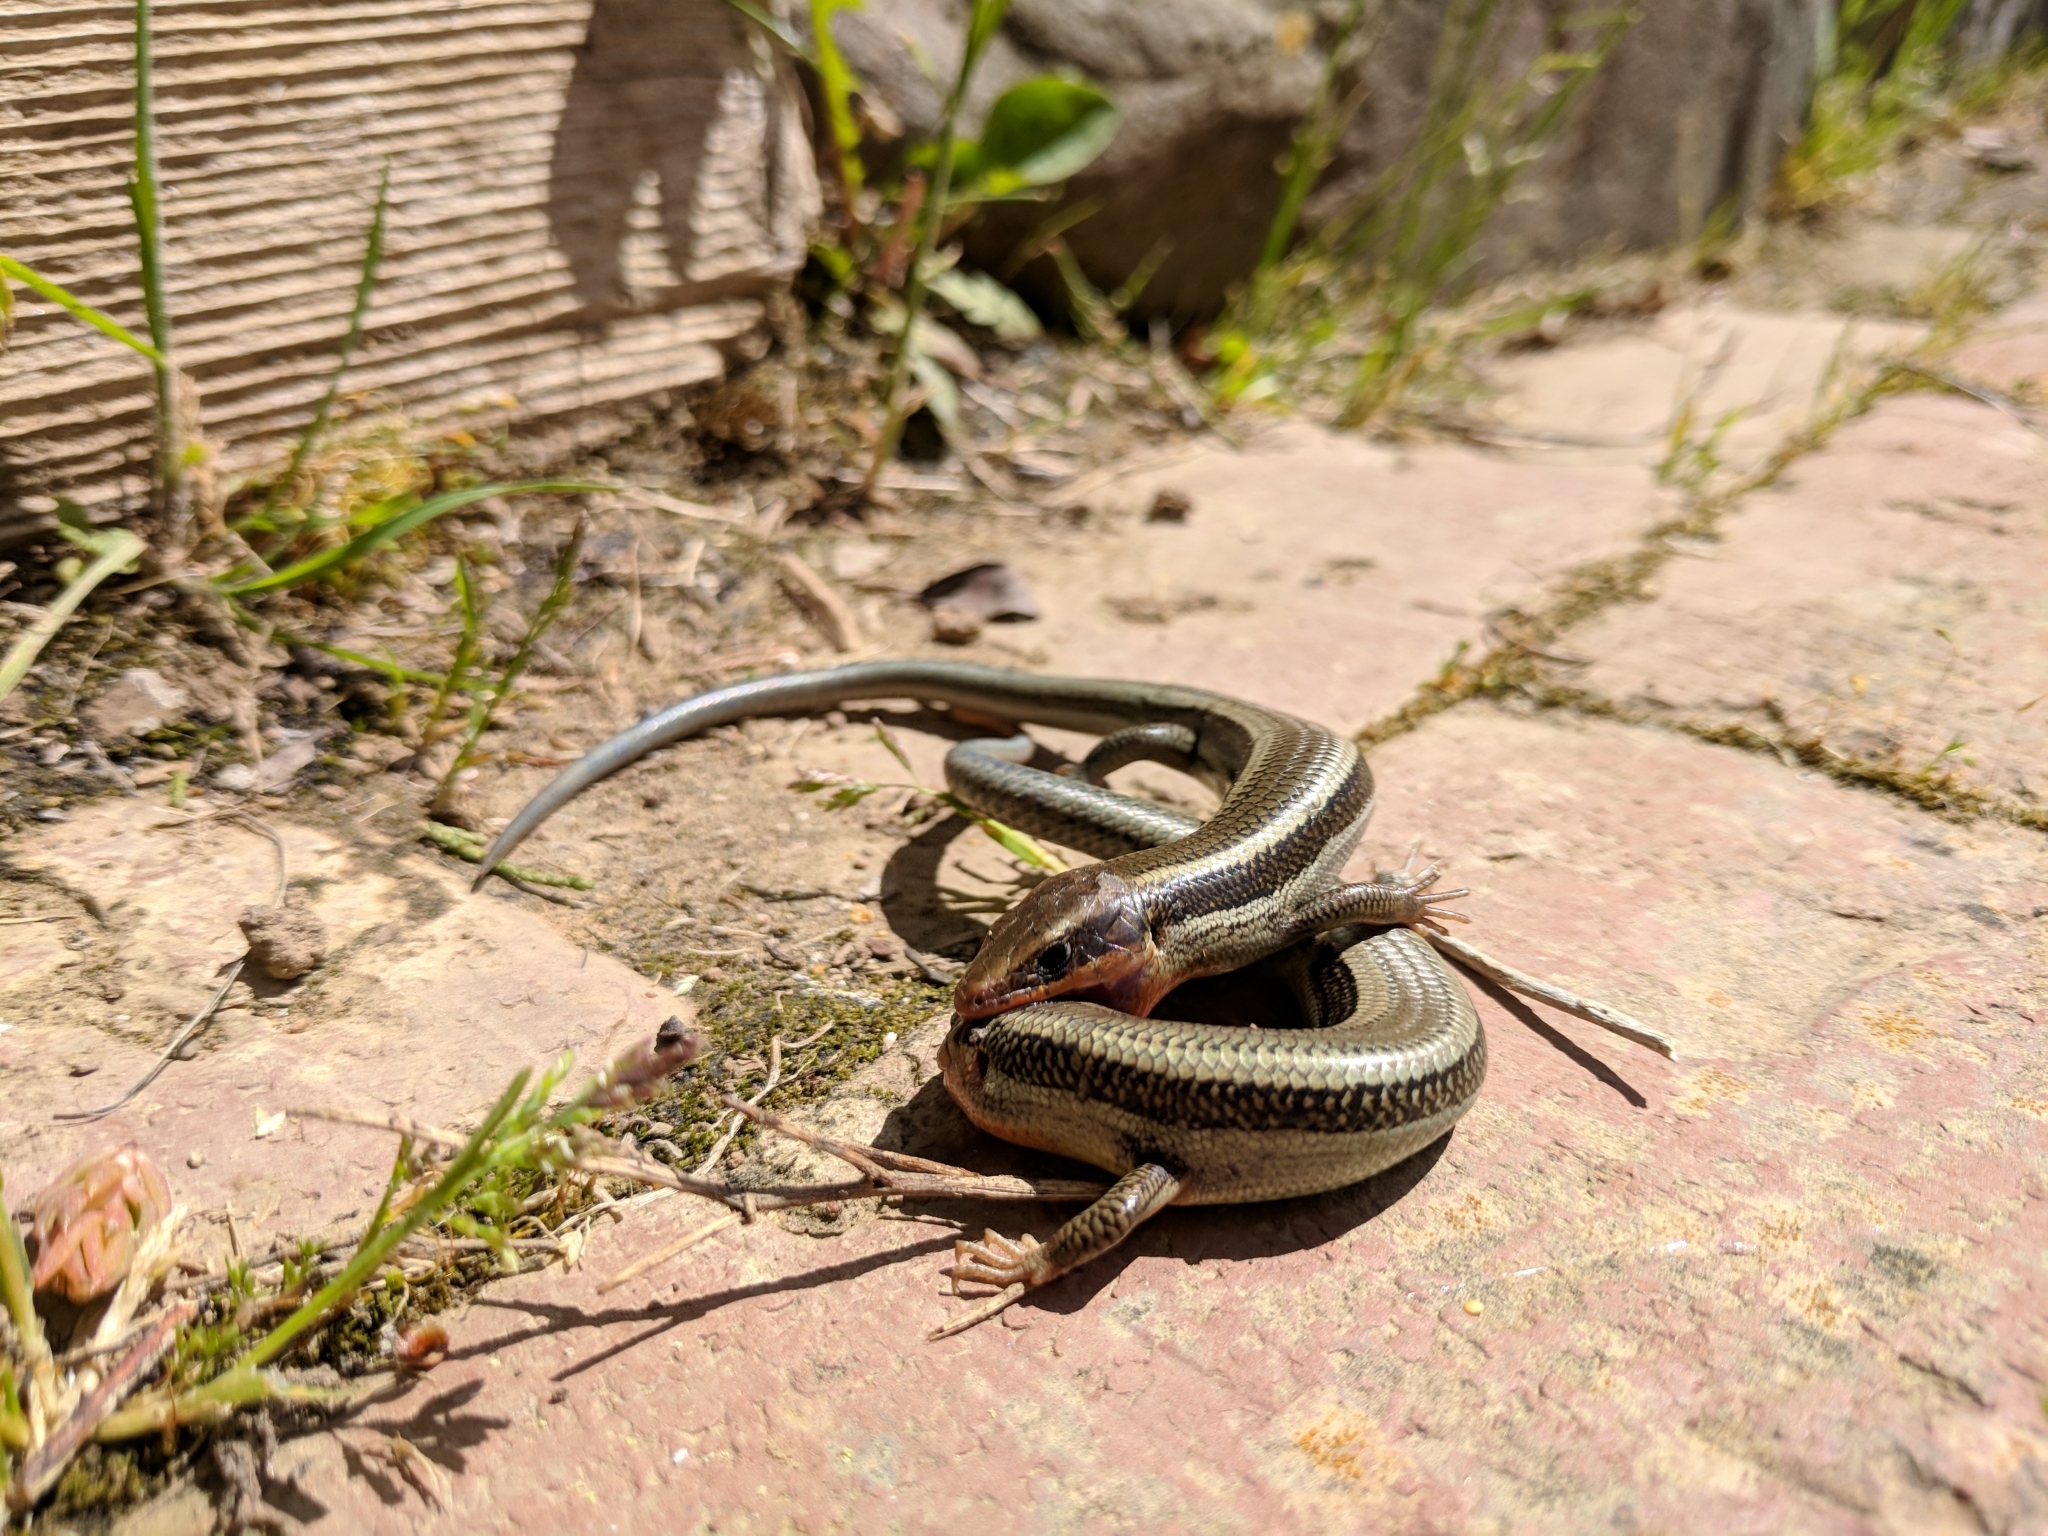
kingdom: Animalia
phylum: Chordata
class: Squamata
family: Scincidae
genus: Plestiodon
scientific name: Plestiodon skiltonianus
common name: Coronado island skink [interparietalis]
